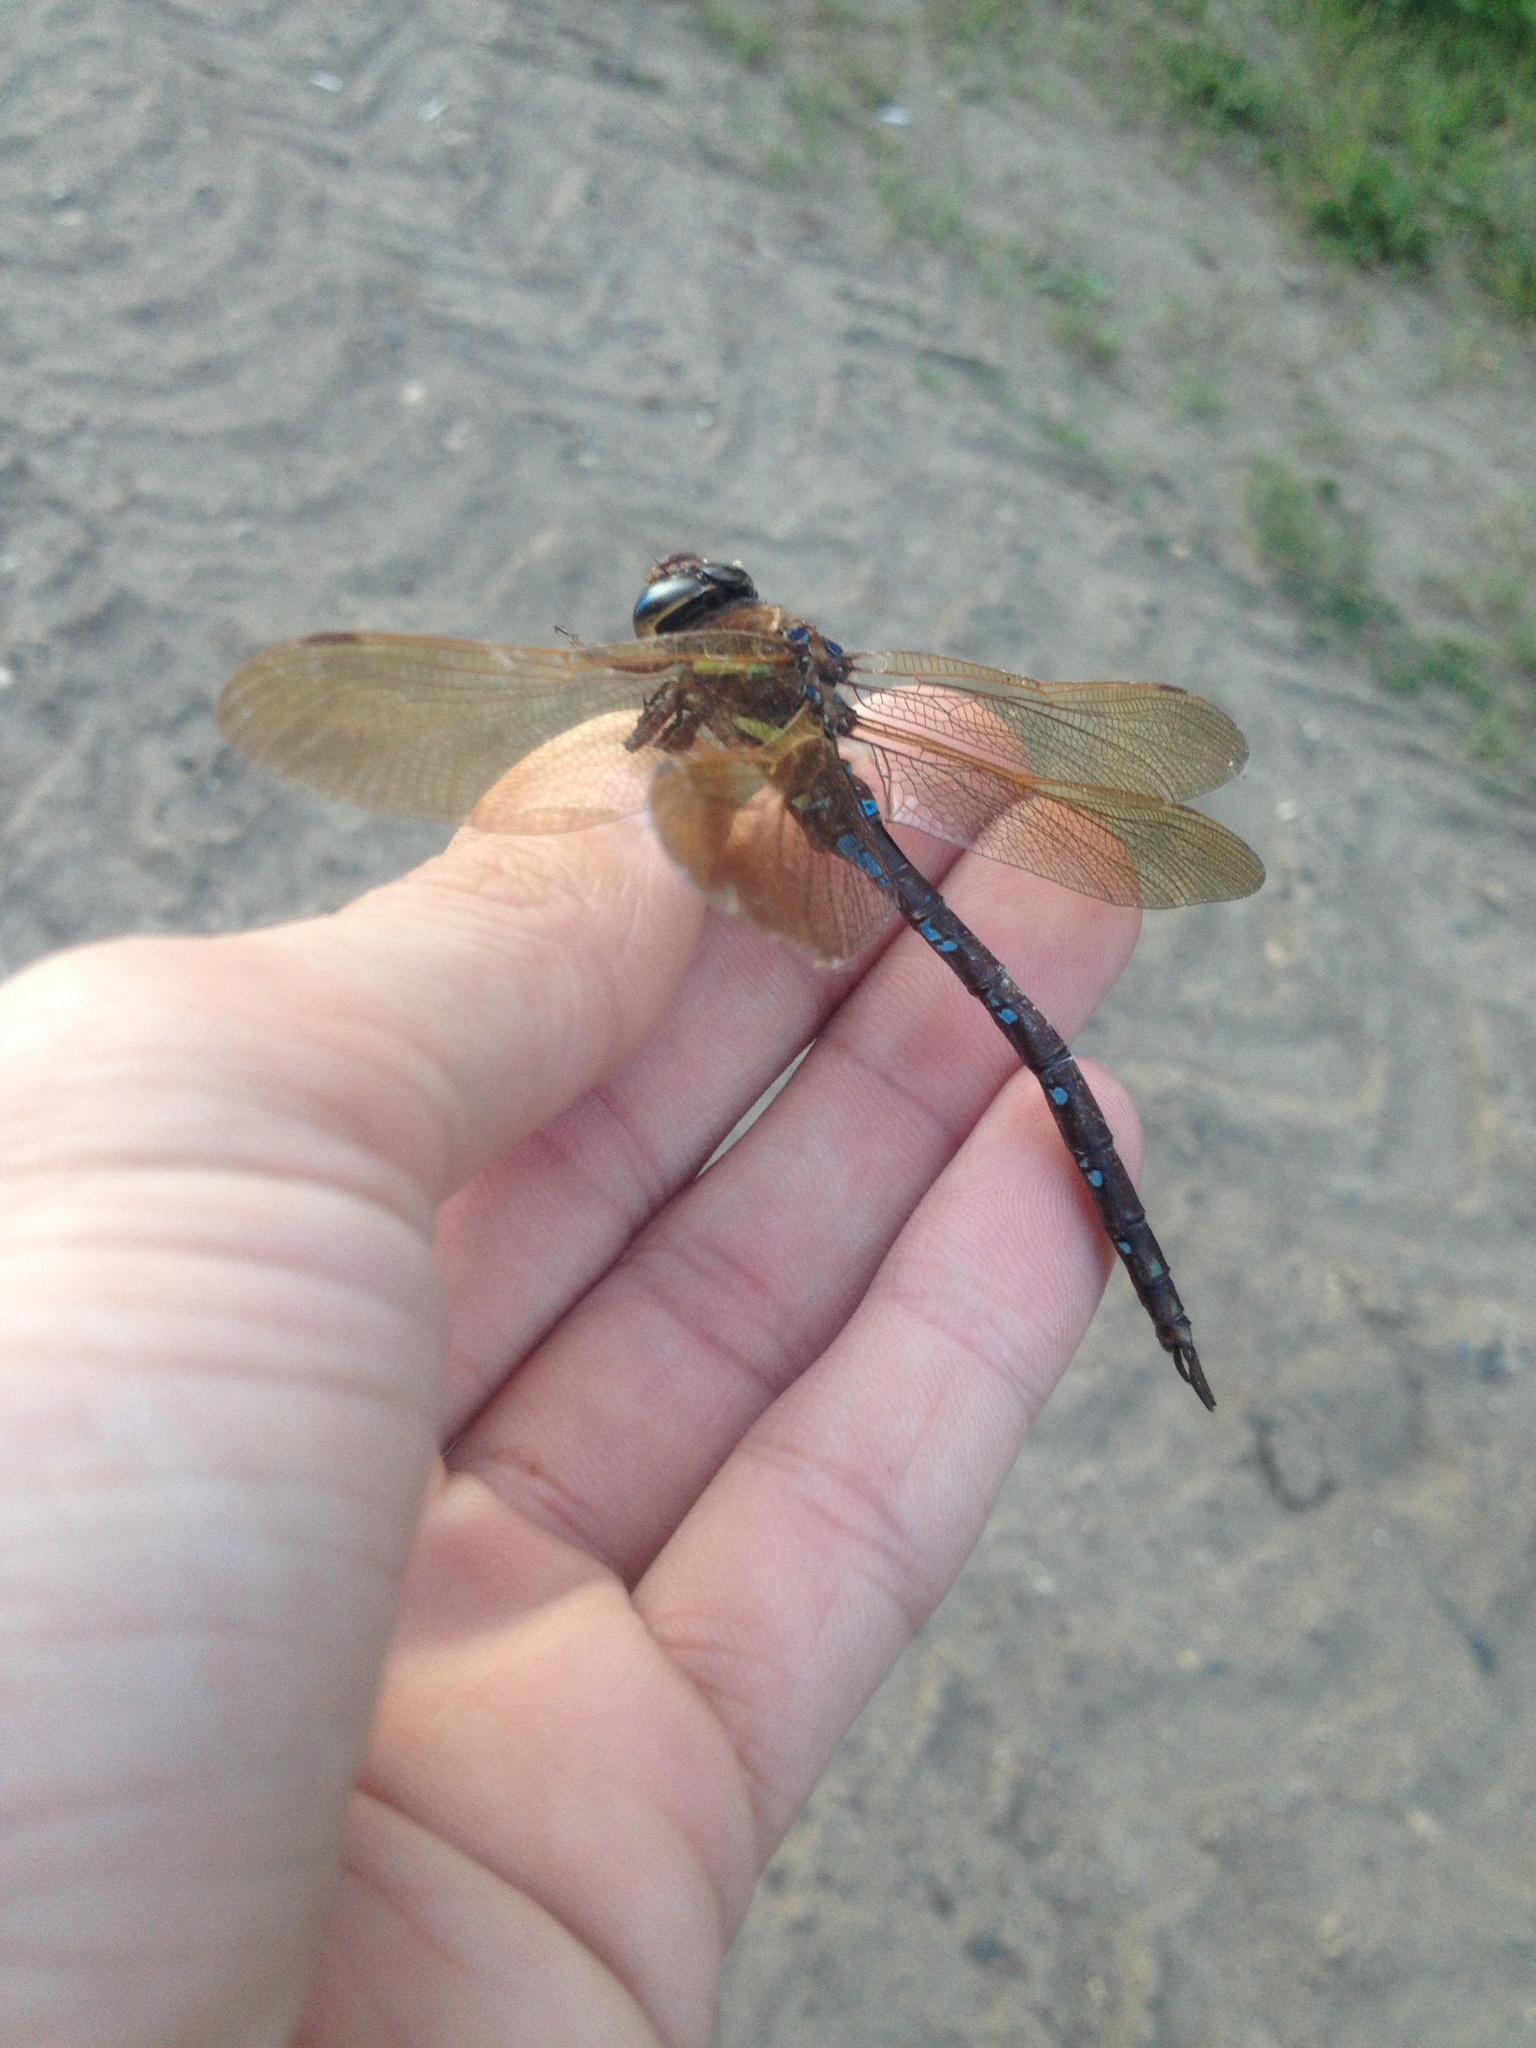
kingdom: Animalia
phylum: Arthropoda
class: Insecta
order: Odonata
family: Aeshnidae
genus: Aeshna
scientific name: Aeshna grandis
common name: Brown hawker
